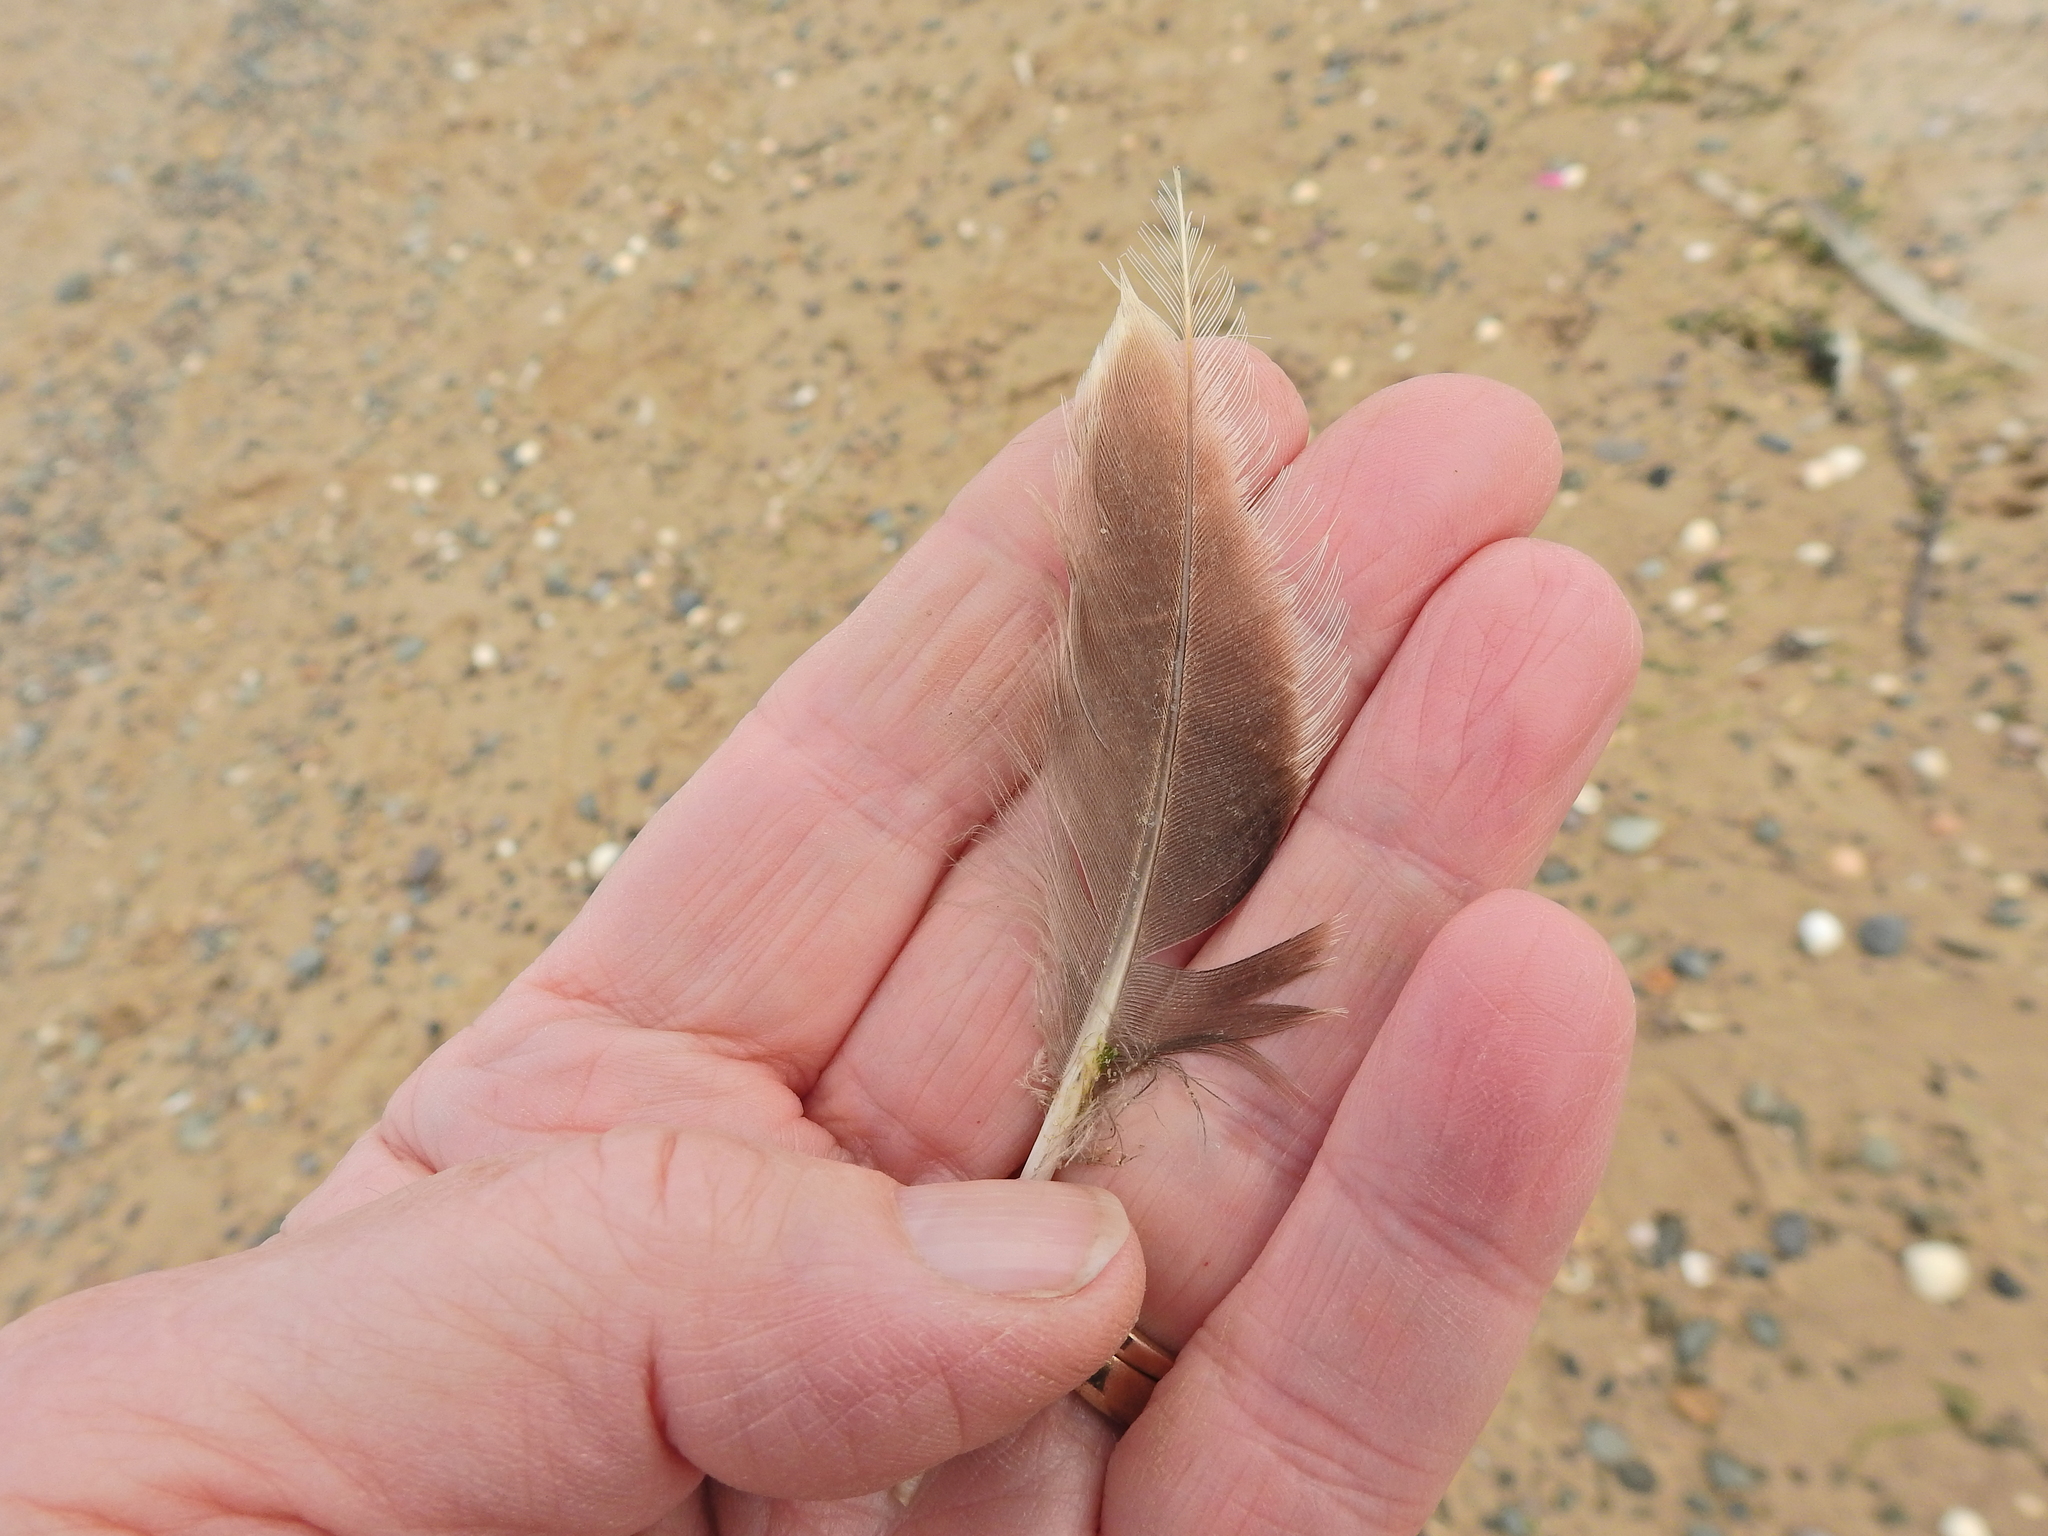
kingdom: Animalia
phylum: Chordata
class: Aves
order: Anseriformes
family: Anatidae
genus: Somateria
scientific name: Somateria mollissima
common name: Common eider
